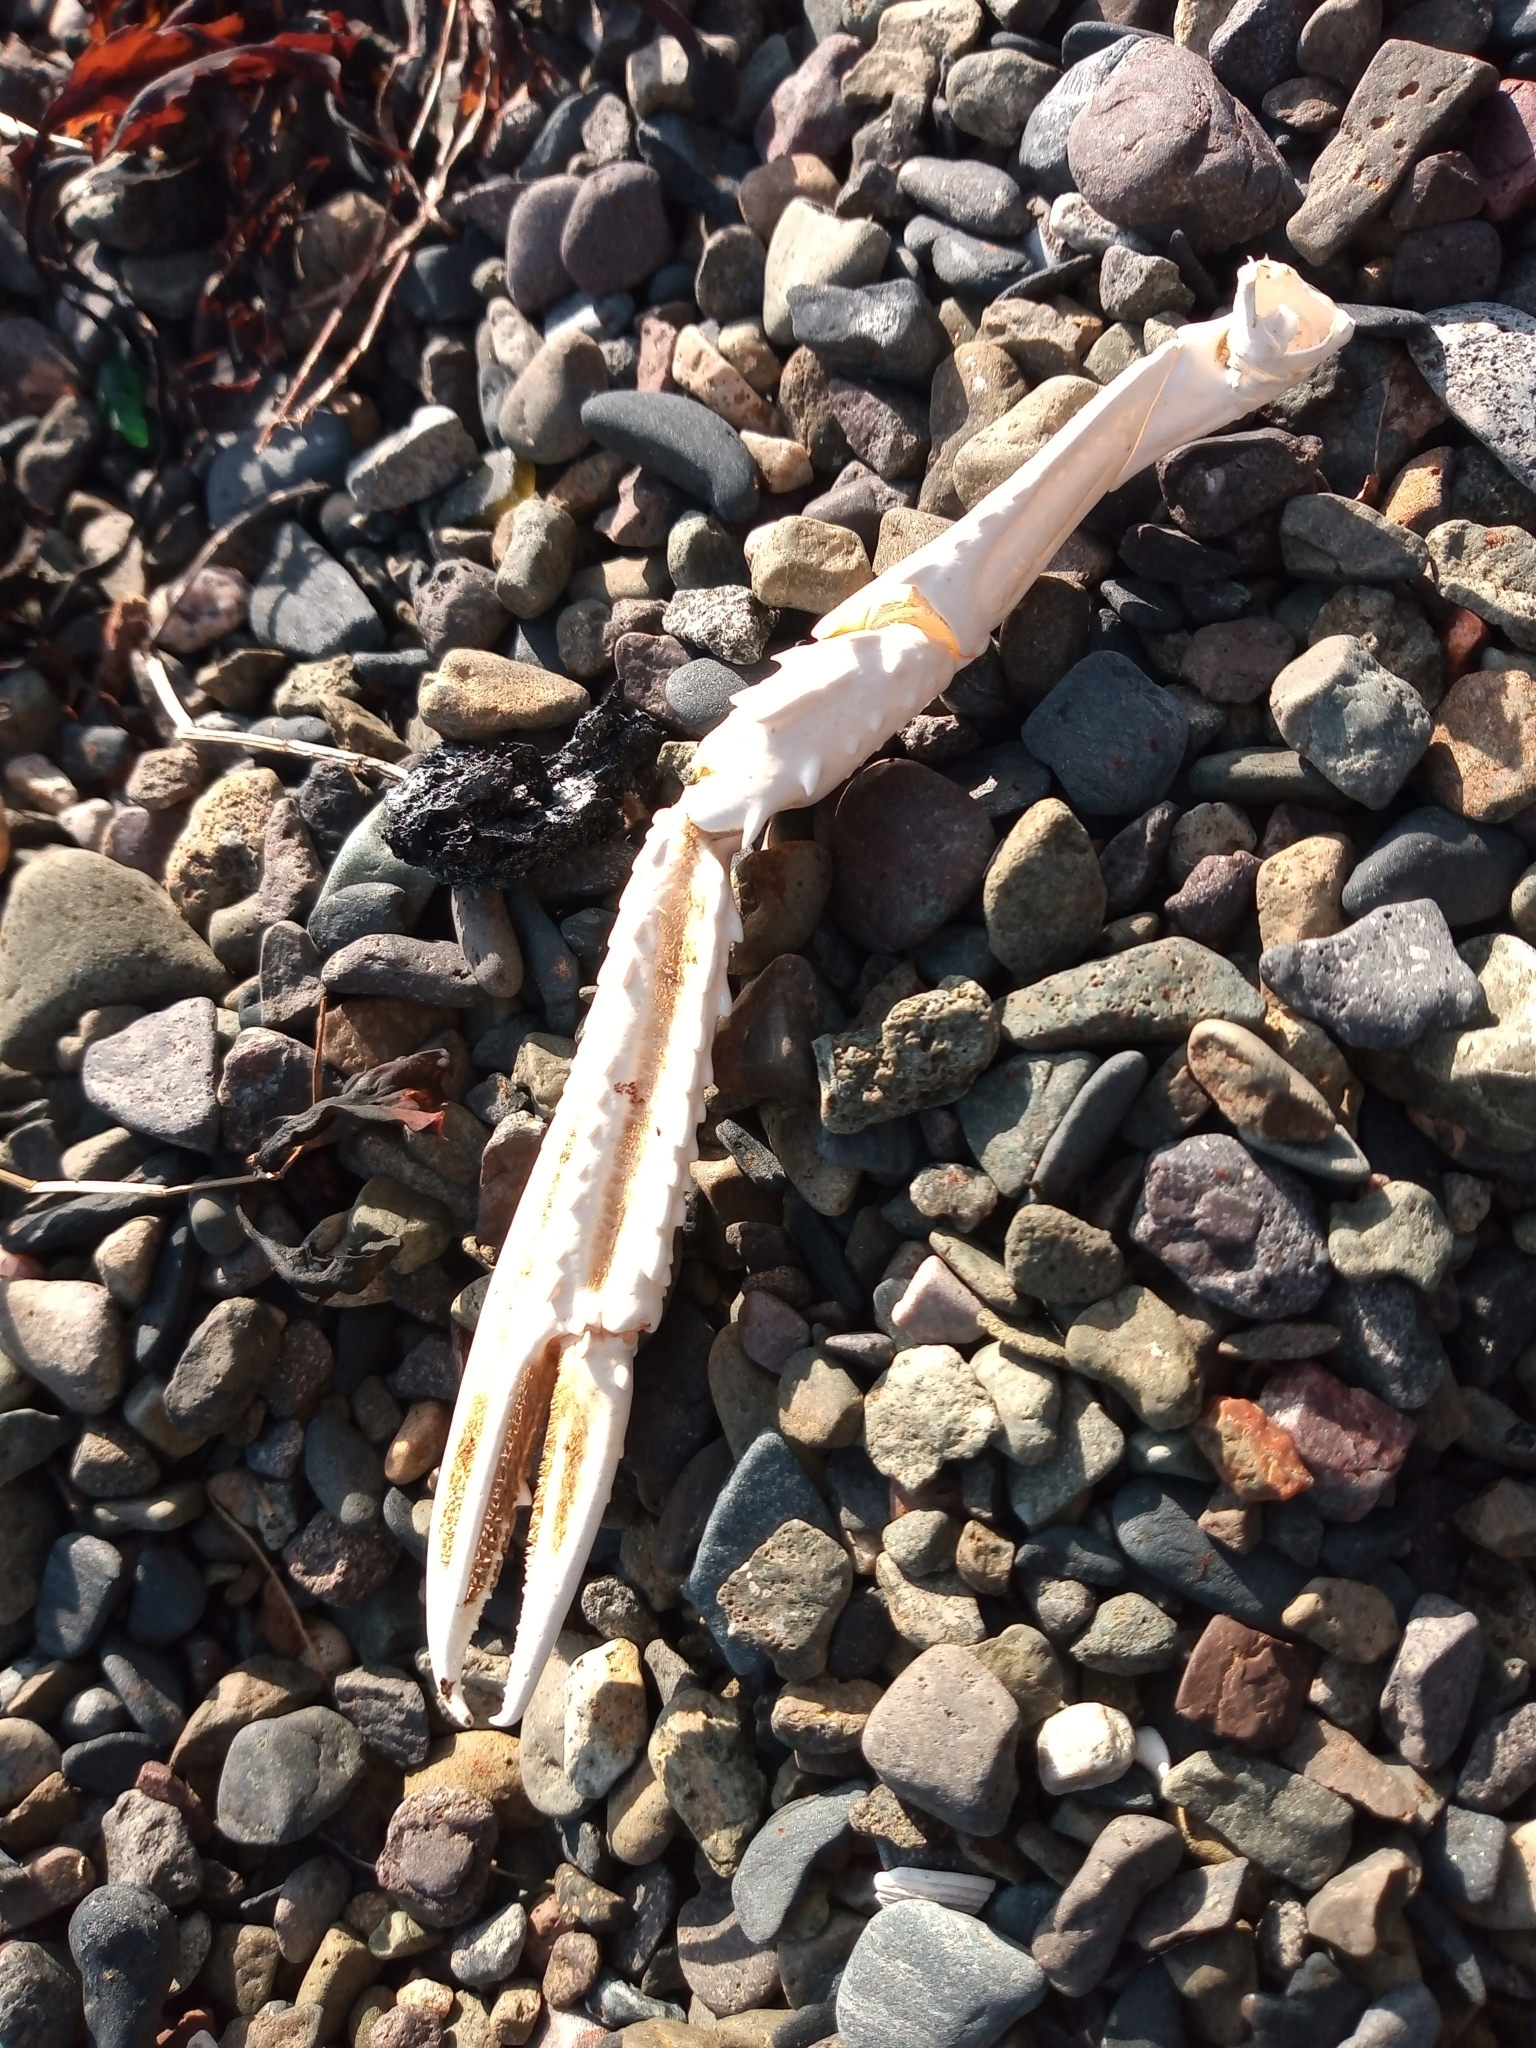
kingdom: Animalia
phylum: Arthropoda
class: Malacostraca
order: Decapoda
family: Nephropidae
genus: Nephrops
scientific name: Nephrops norvegicus
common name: Norway lobster
